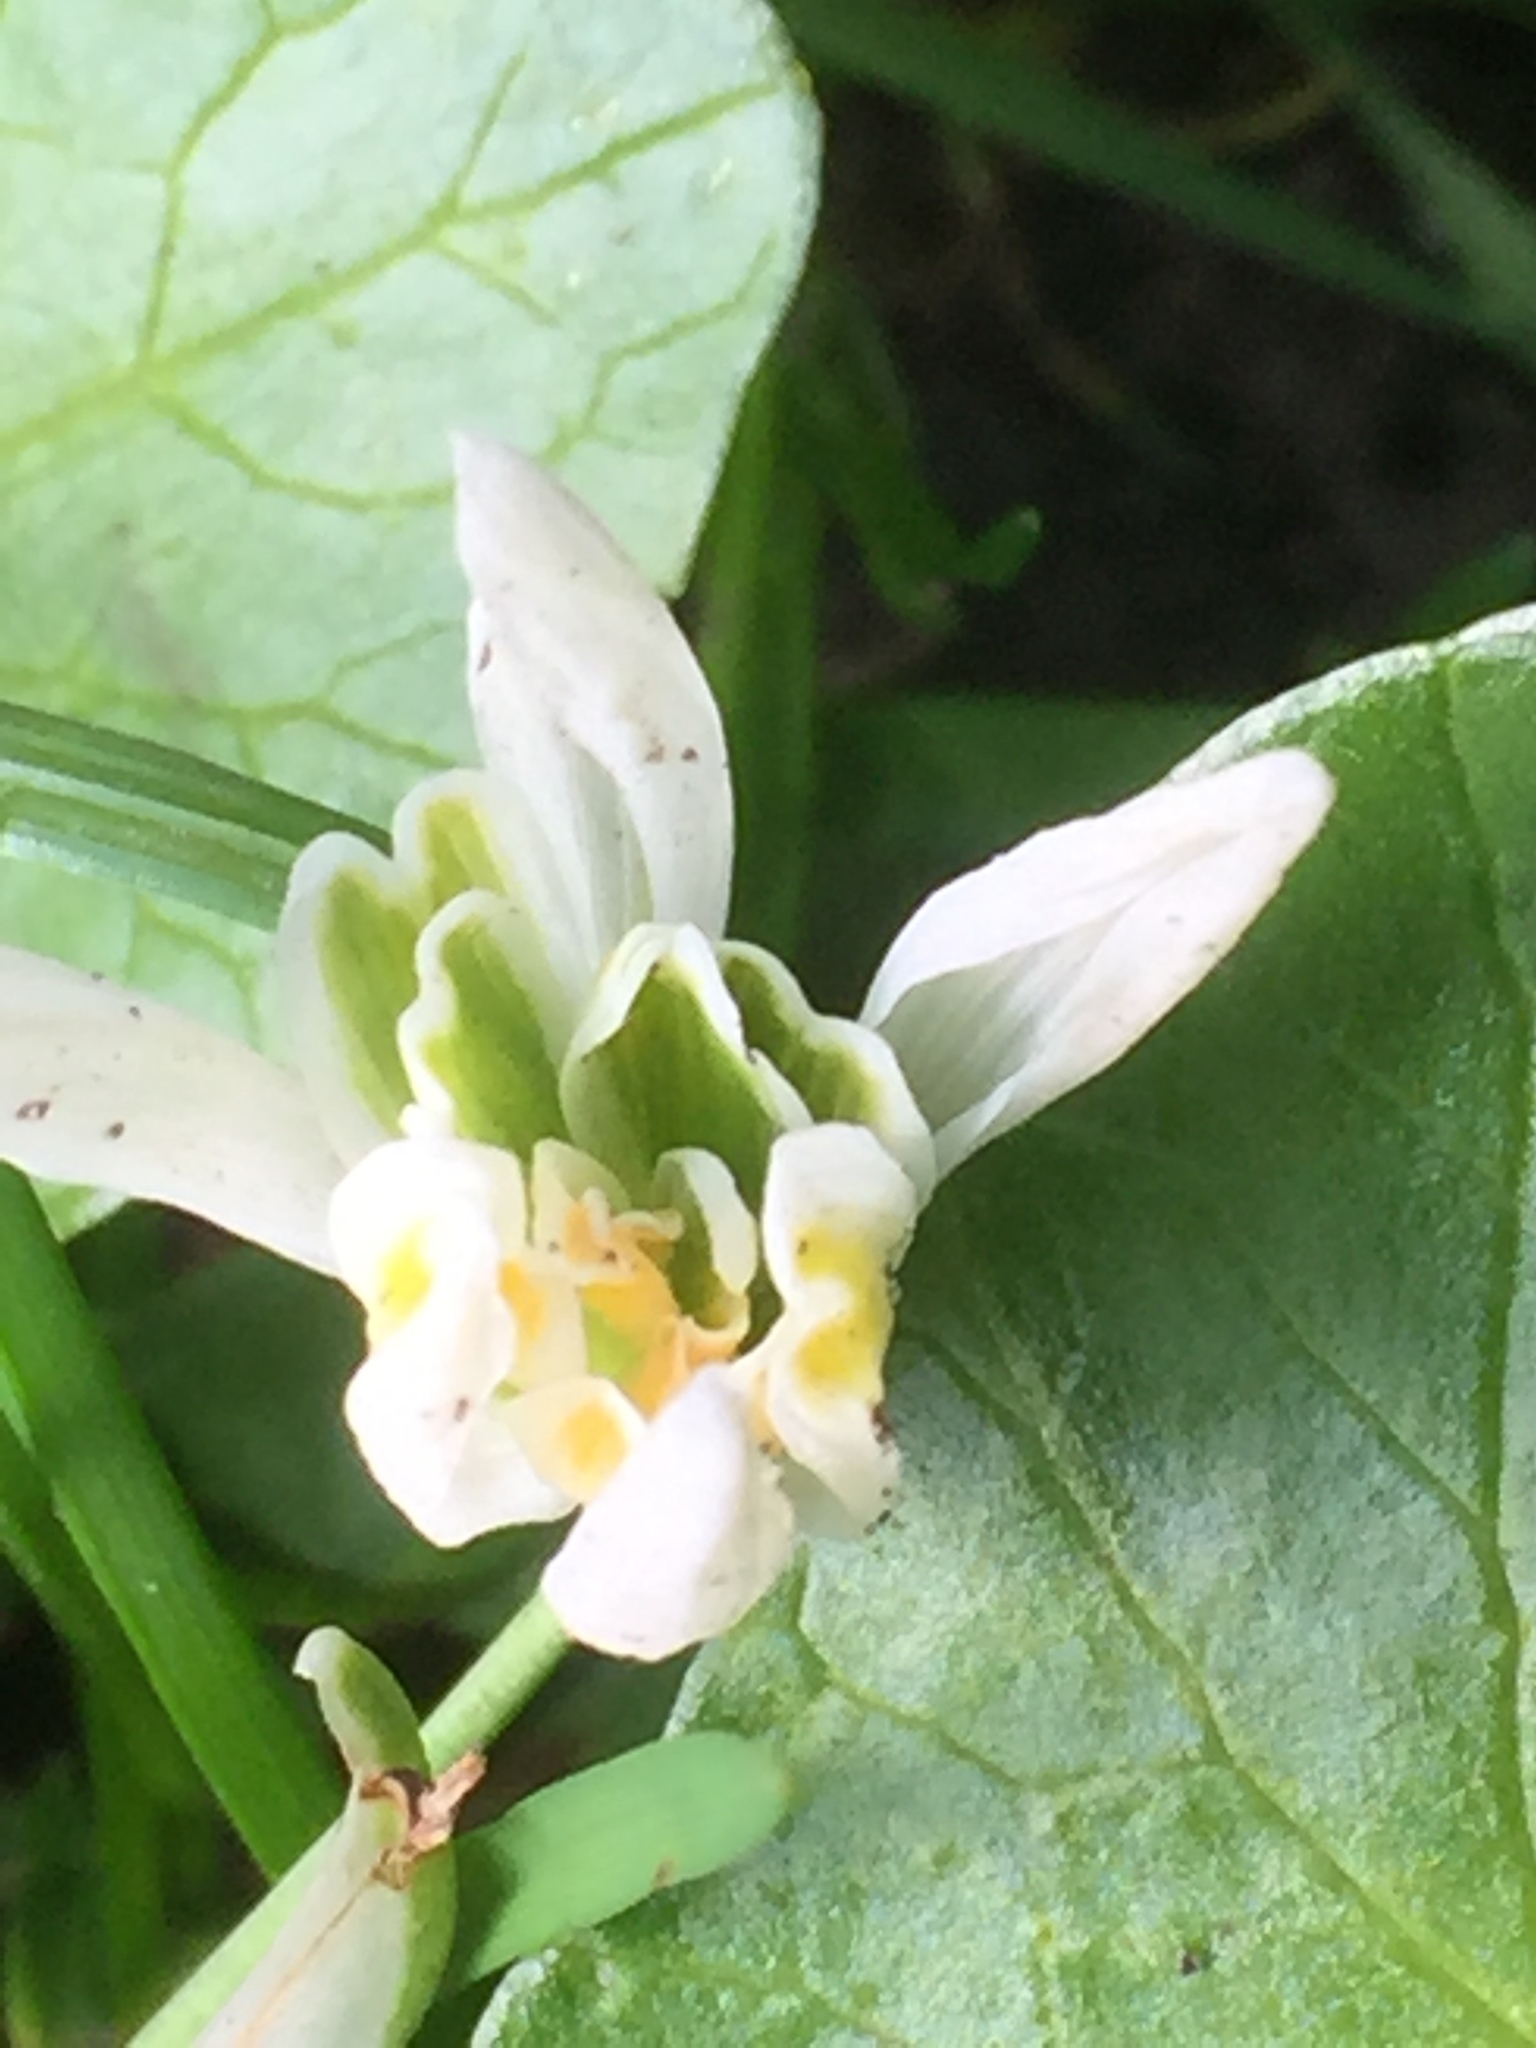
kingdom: Plantae
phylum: Tracheophyta
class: Liliopsida
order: Asparagales
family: Amaryllidaceae
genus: Galanthus
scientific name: Galanthus nivalis
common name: Snowdrop
